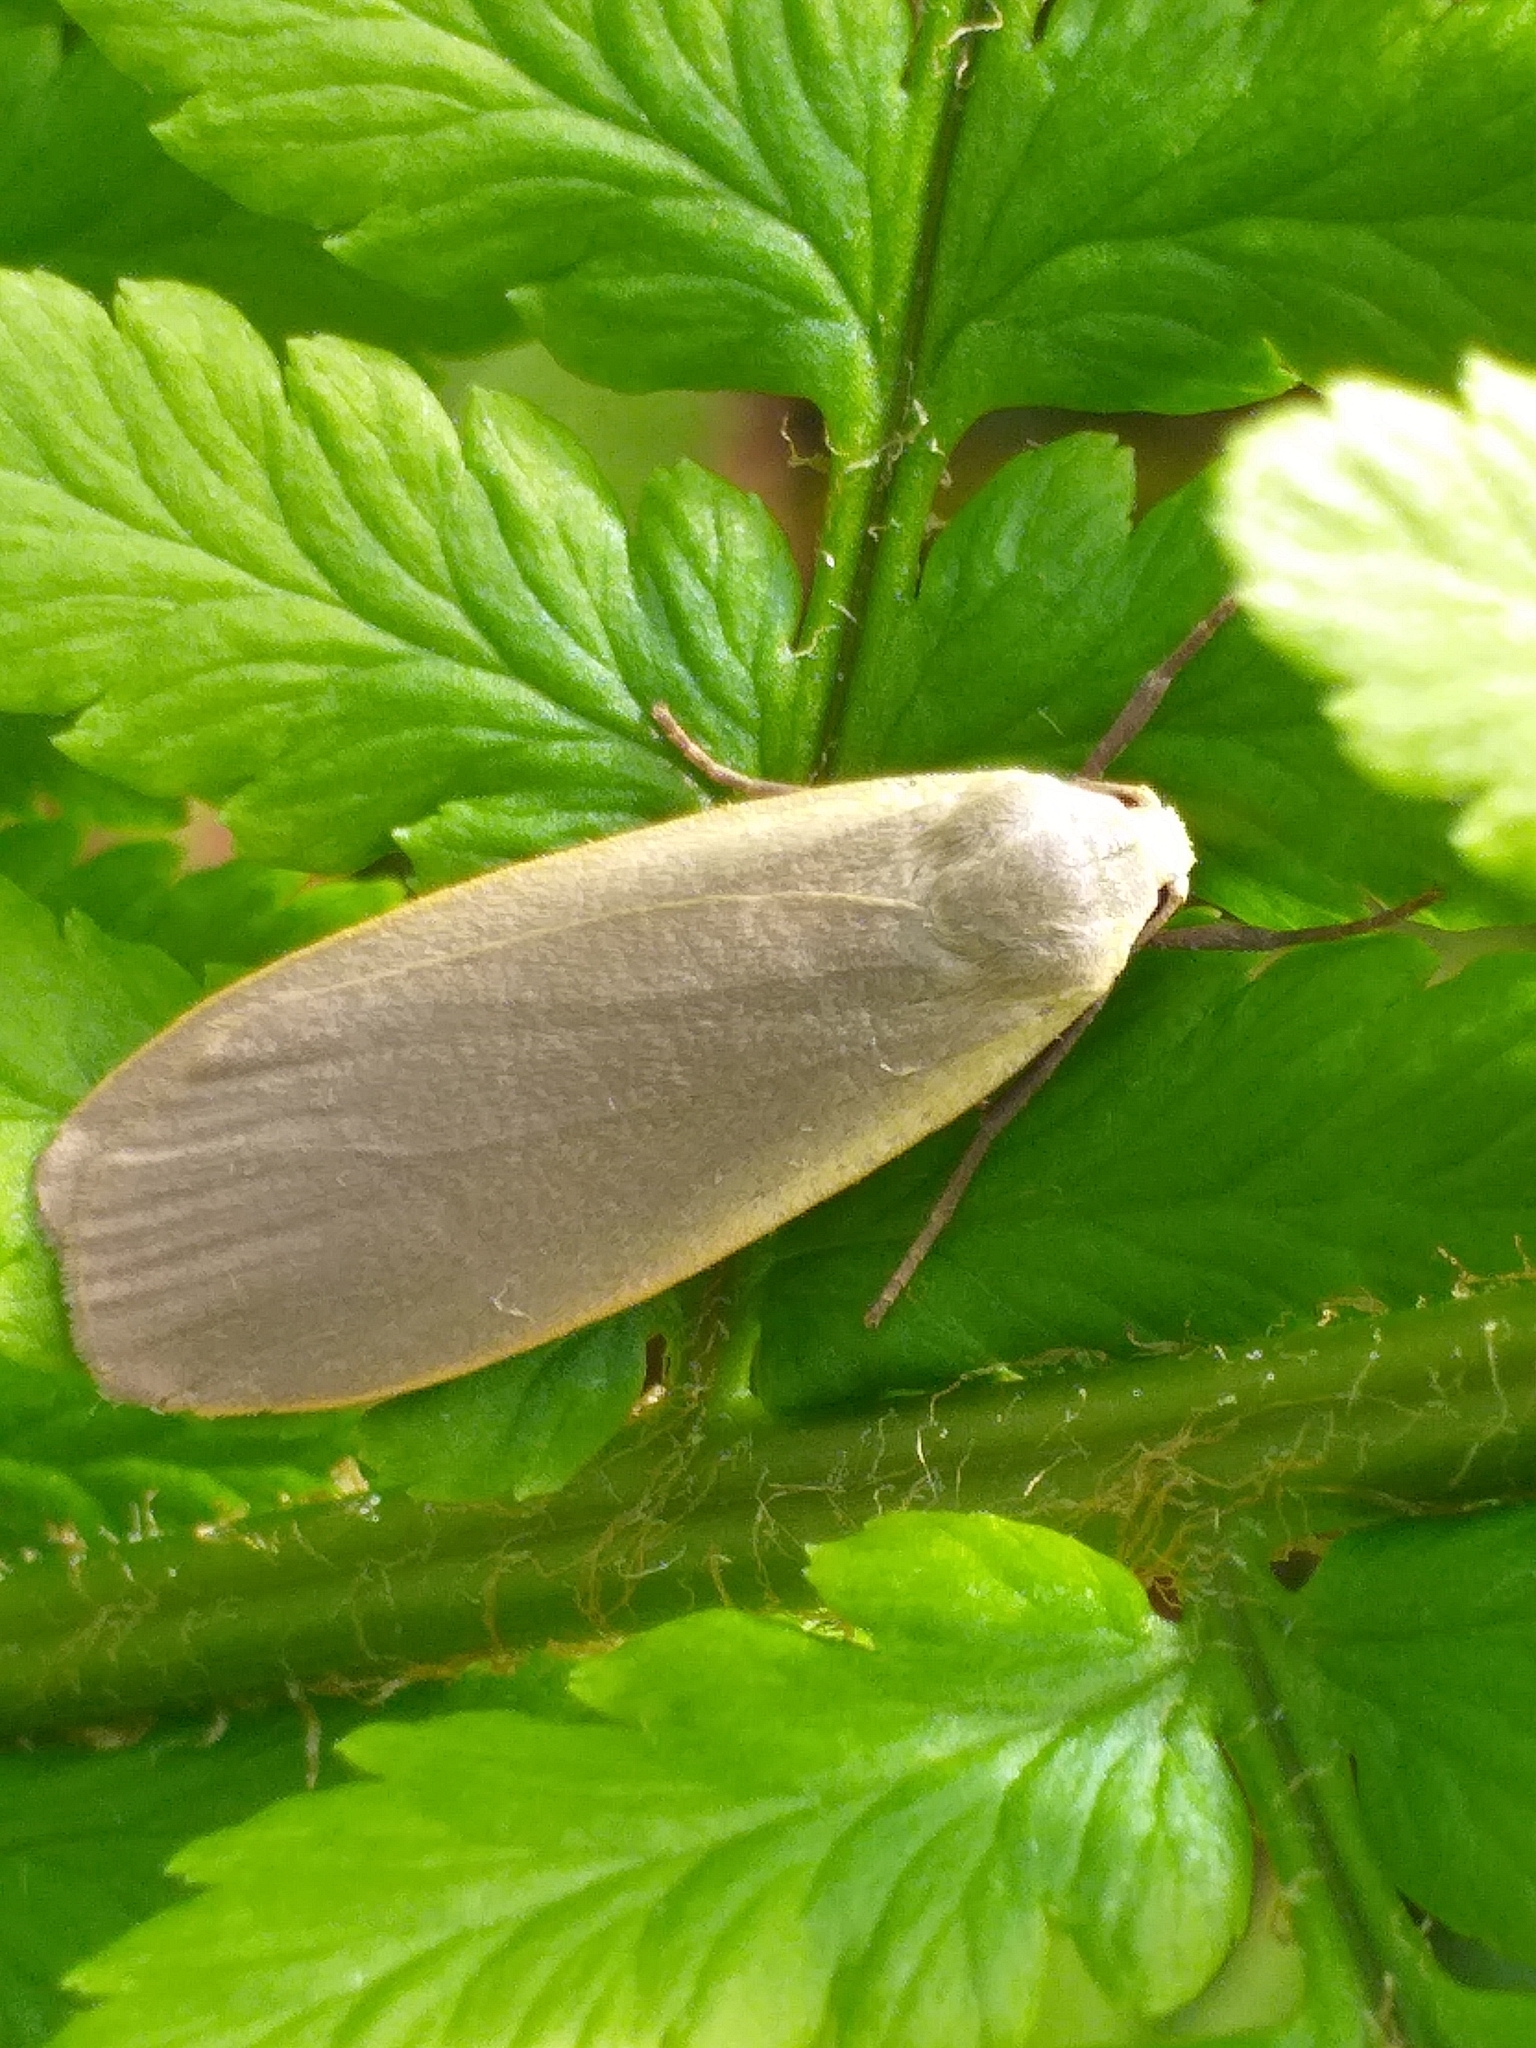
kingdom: Animalia
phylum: Arthropoda
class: Insecta
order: Lepidoptera
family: Erebidae
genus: Collita
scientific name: Collita griseola
